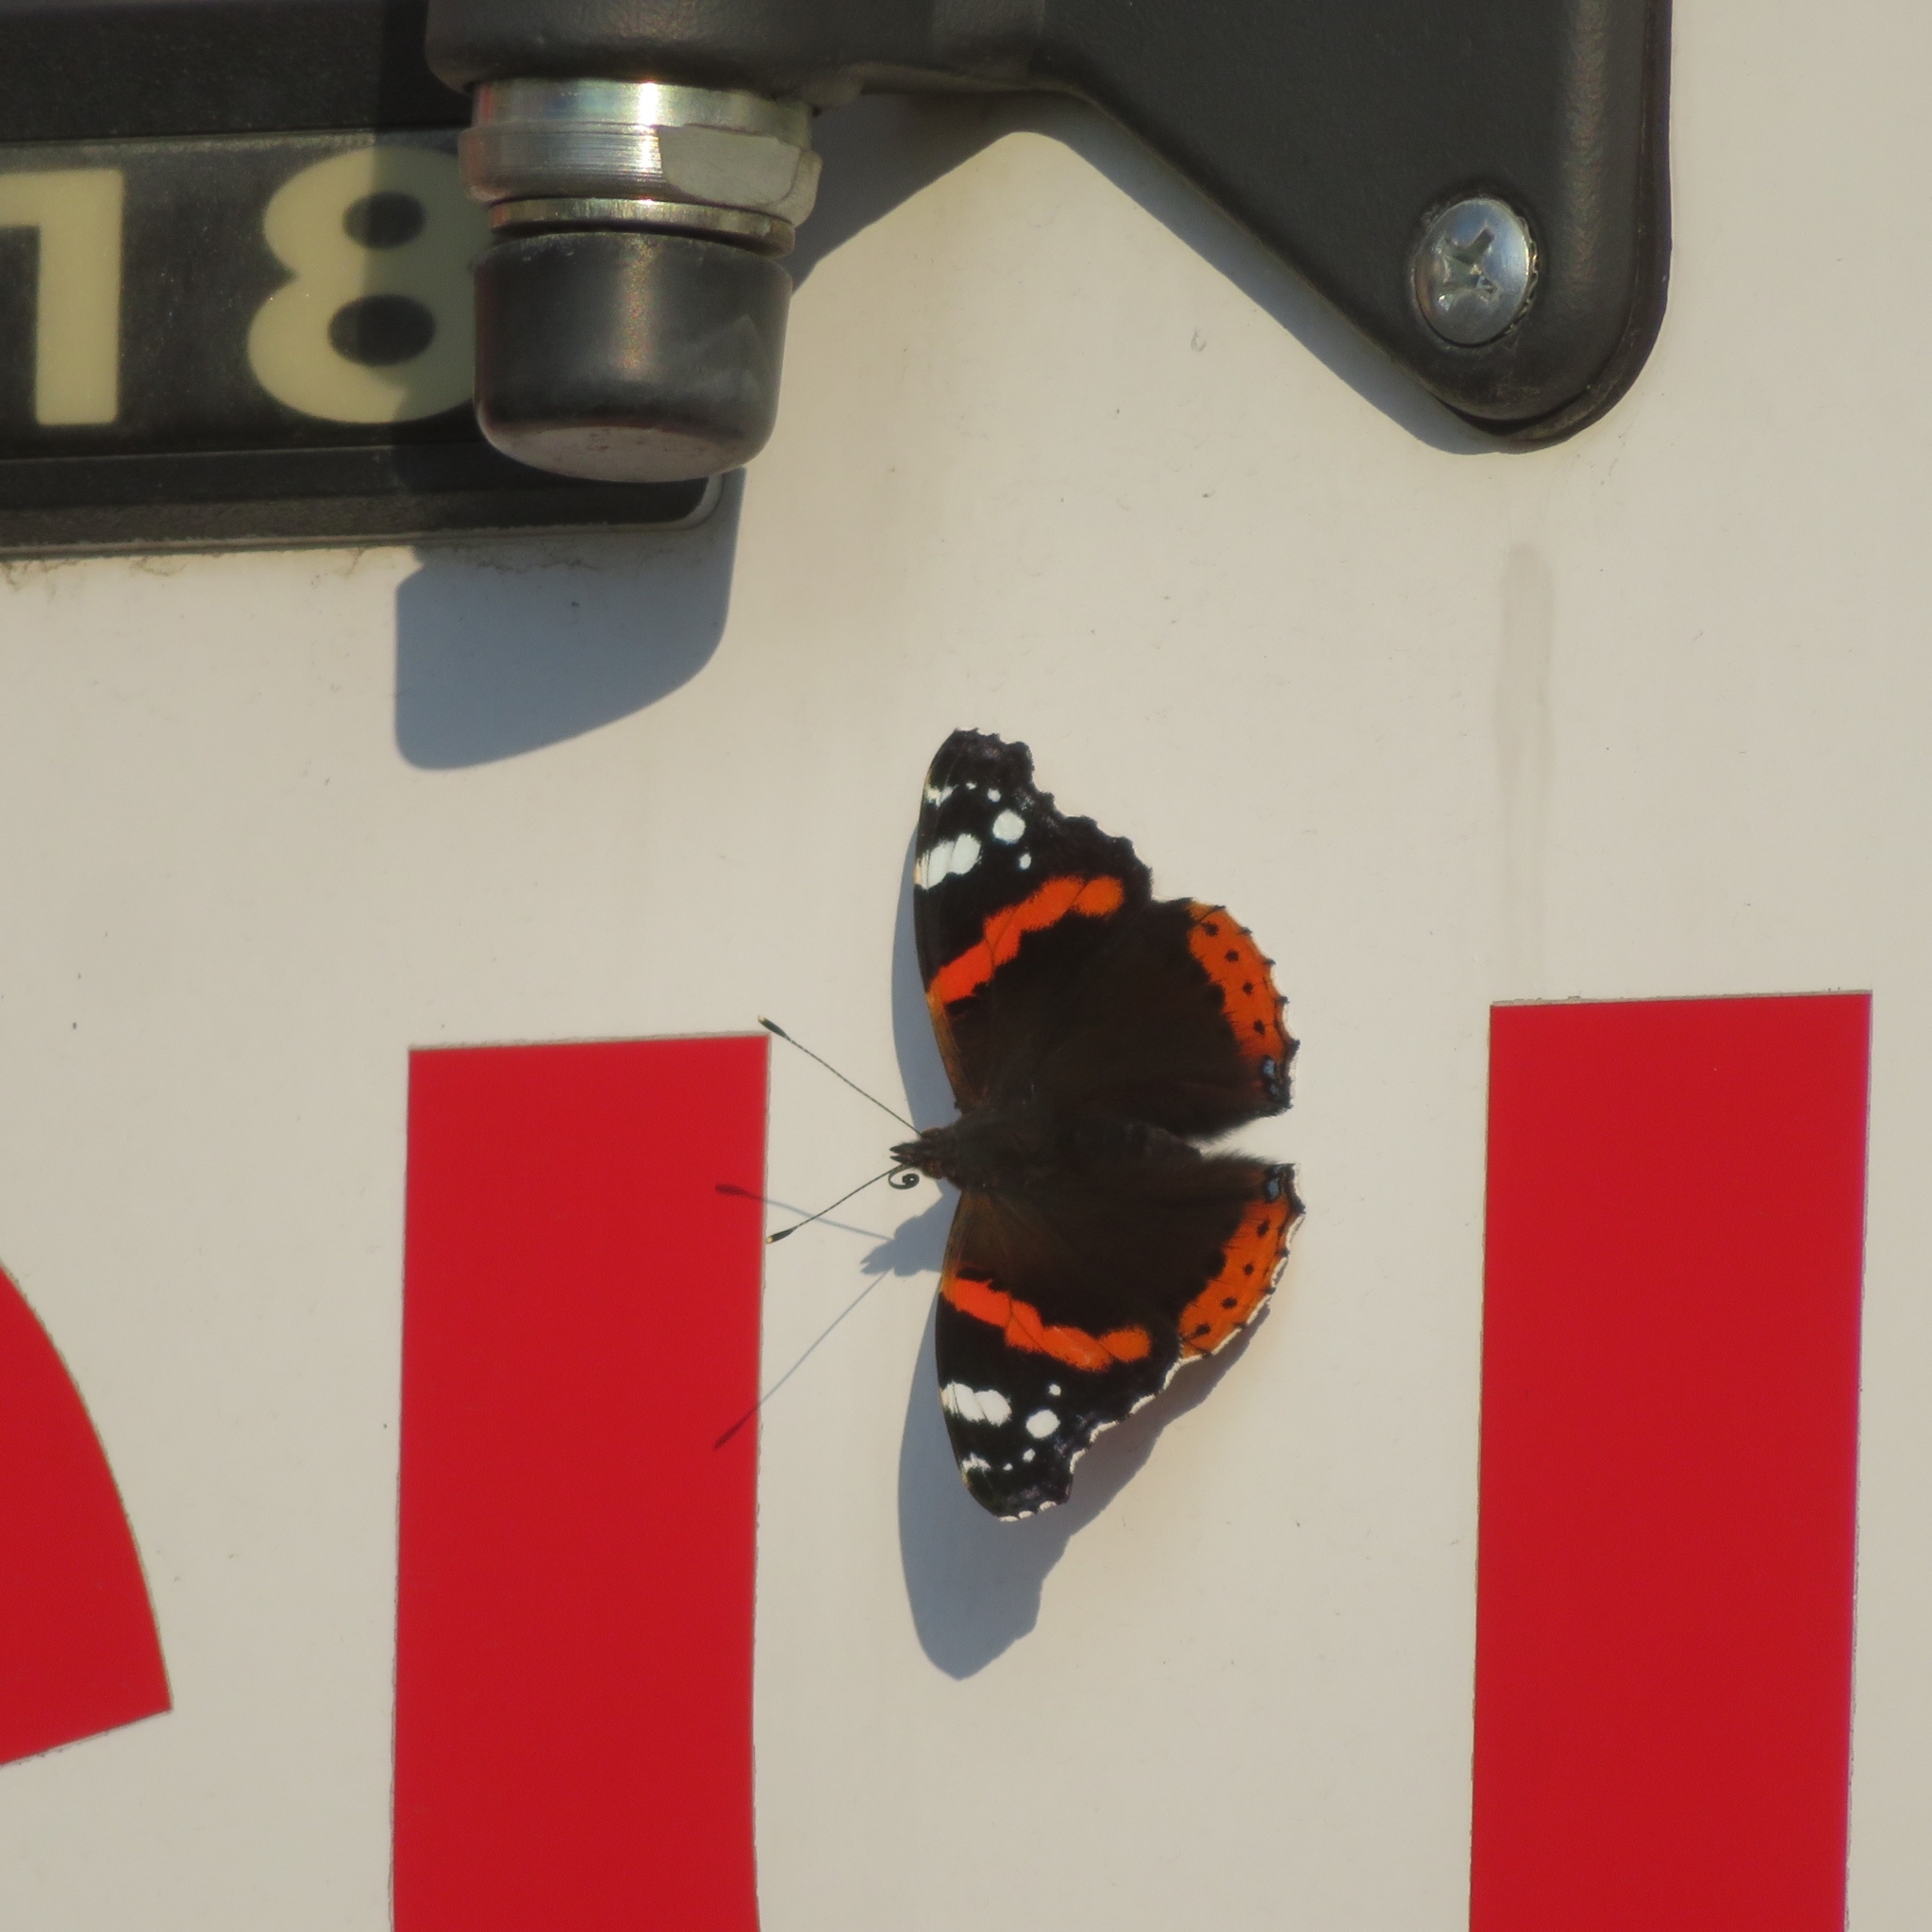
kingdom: Animalia
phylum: Arthropoda
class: Insecta
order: Lepidoptera
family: Nymphalidae
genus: Vanessa
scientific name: Vanessa atalanta
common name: Red admiral
